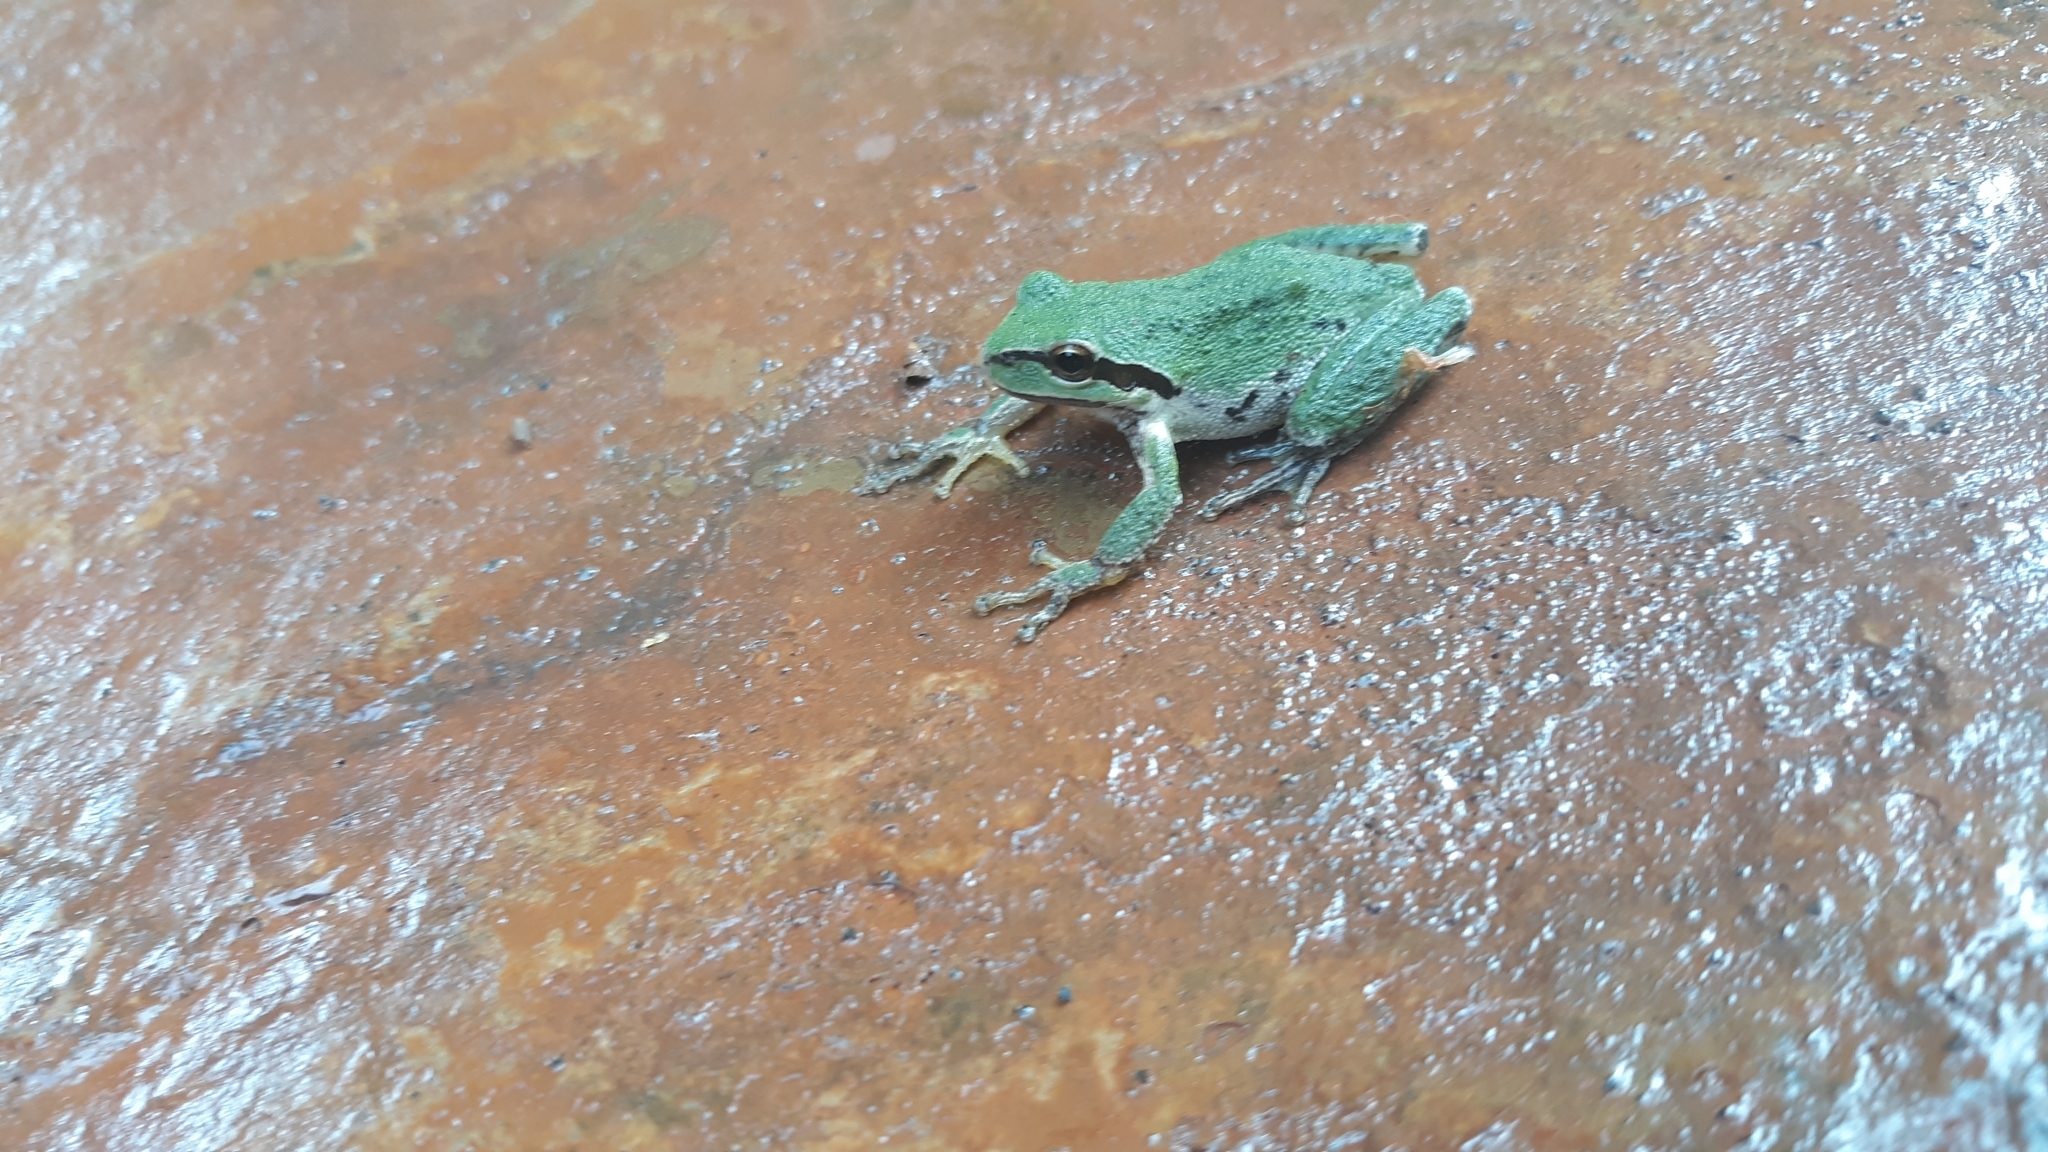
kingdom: Animalia
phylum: Chordata
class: Amphibia
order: Anura
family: Hylidae
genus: Pseudacris
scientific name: Pseudacris regilla
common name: Pacific chorus frog
